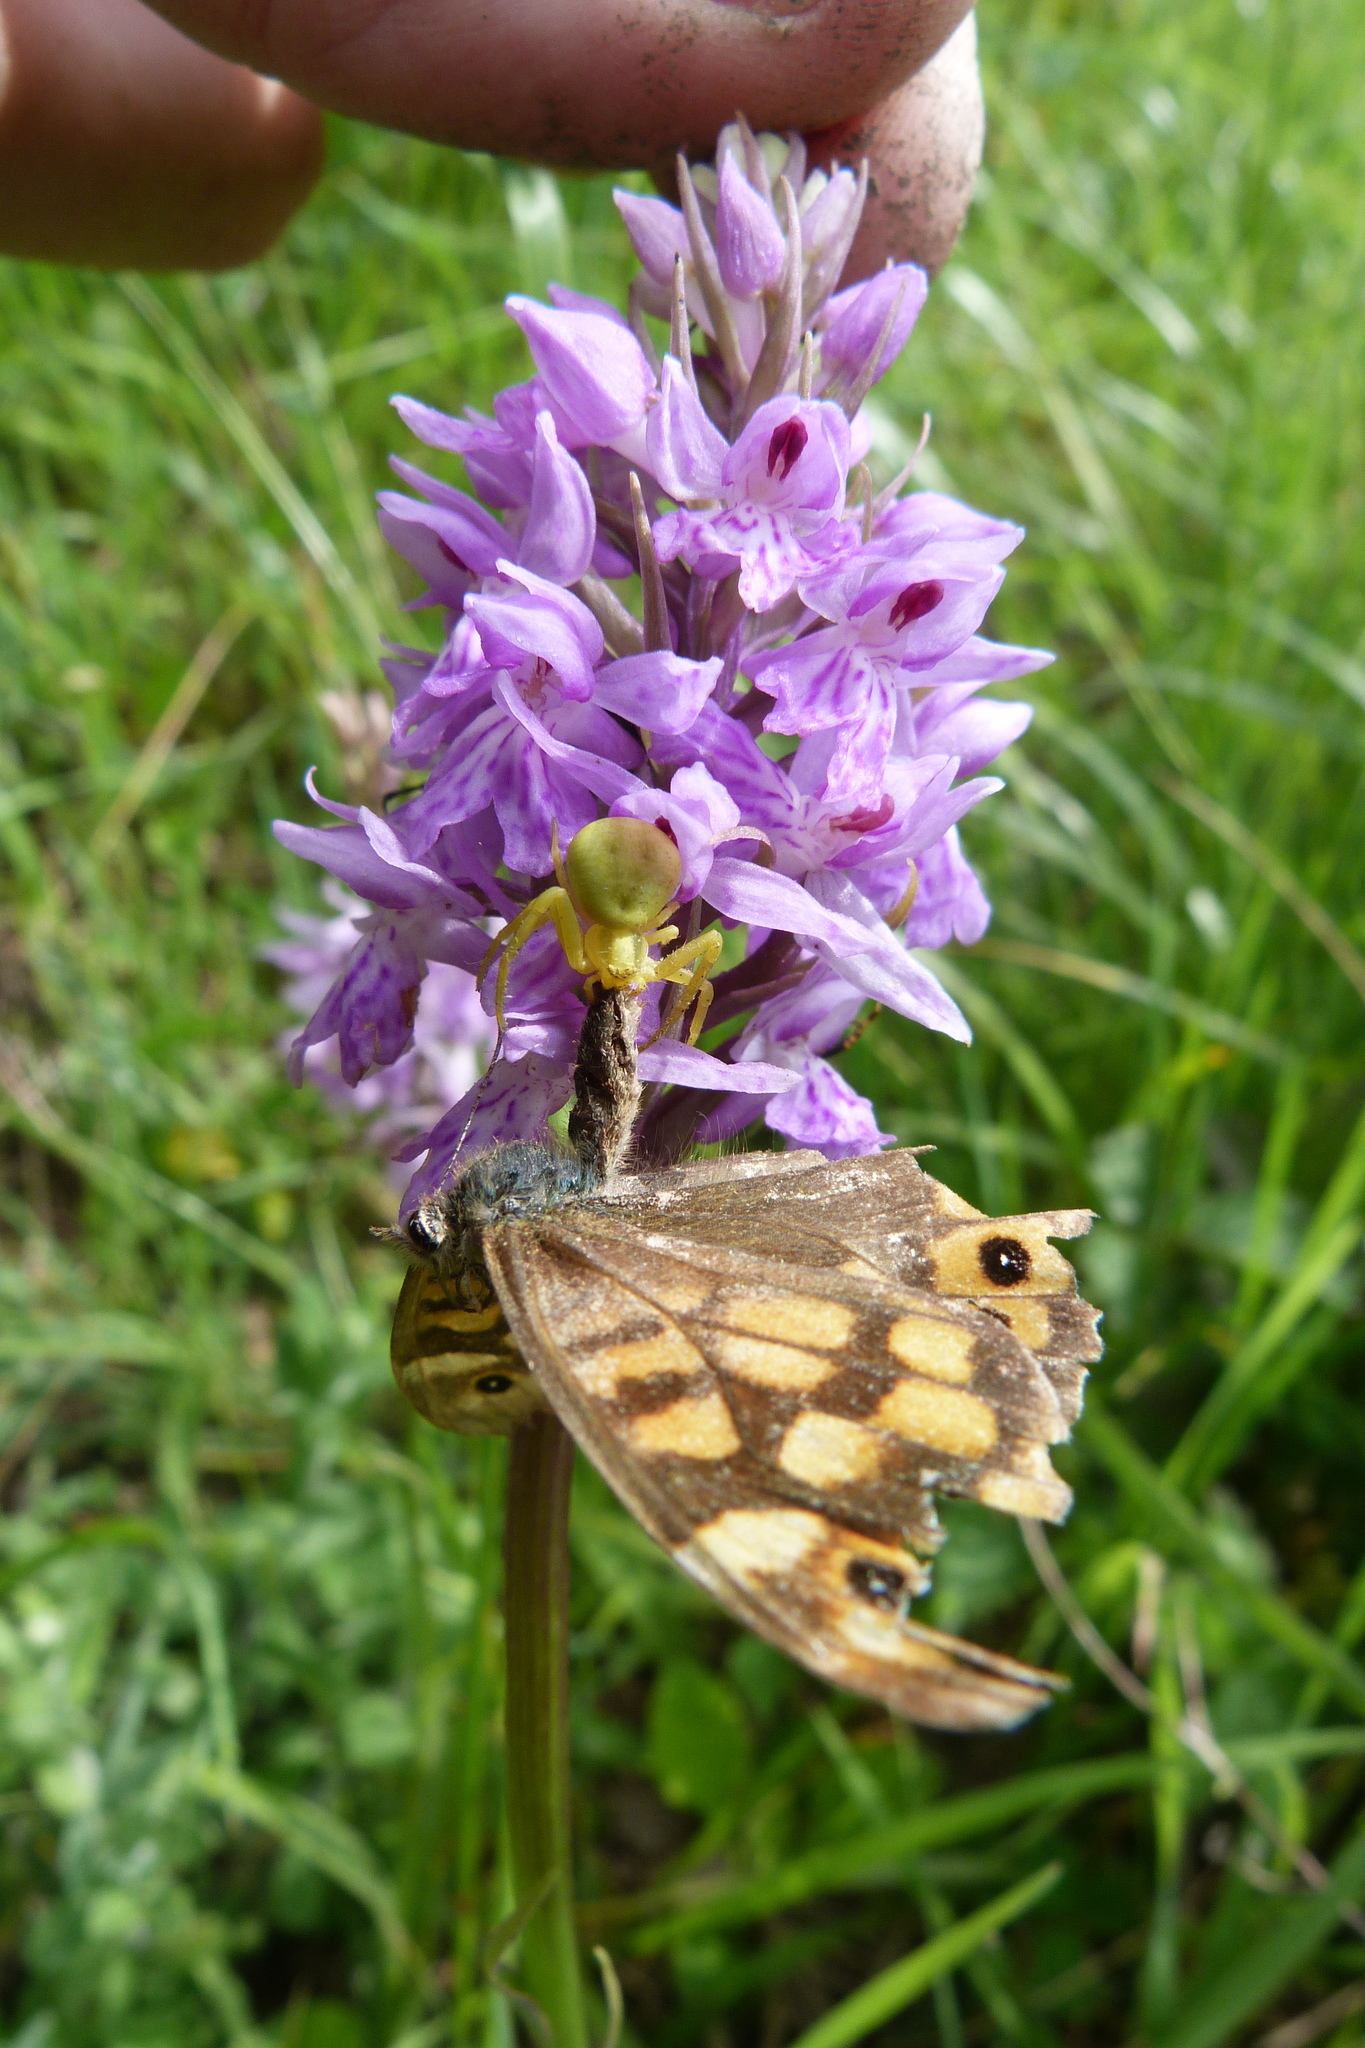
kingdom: Animalia
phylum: Arthropoda
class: Arachnida
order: Araneae
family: Thomisidae
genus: Misumena
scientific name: Misumena vatia
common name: Goldenrod crab spider
